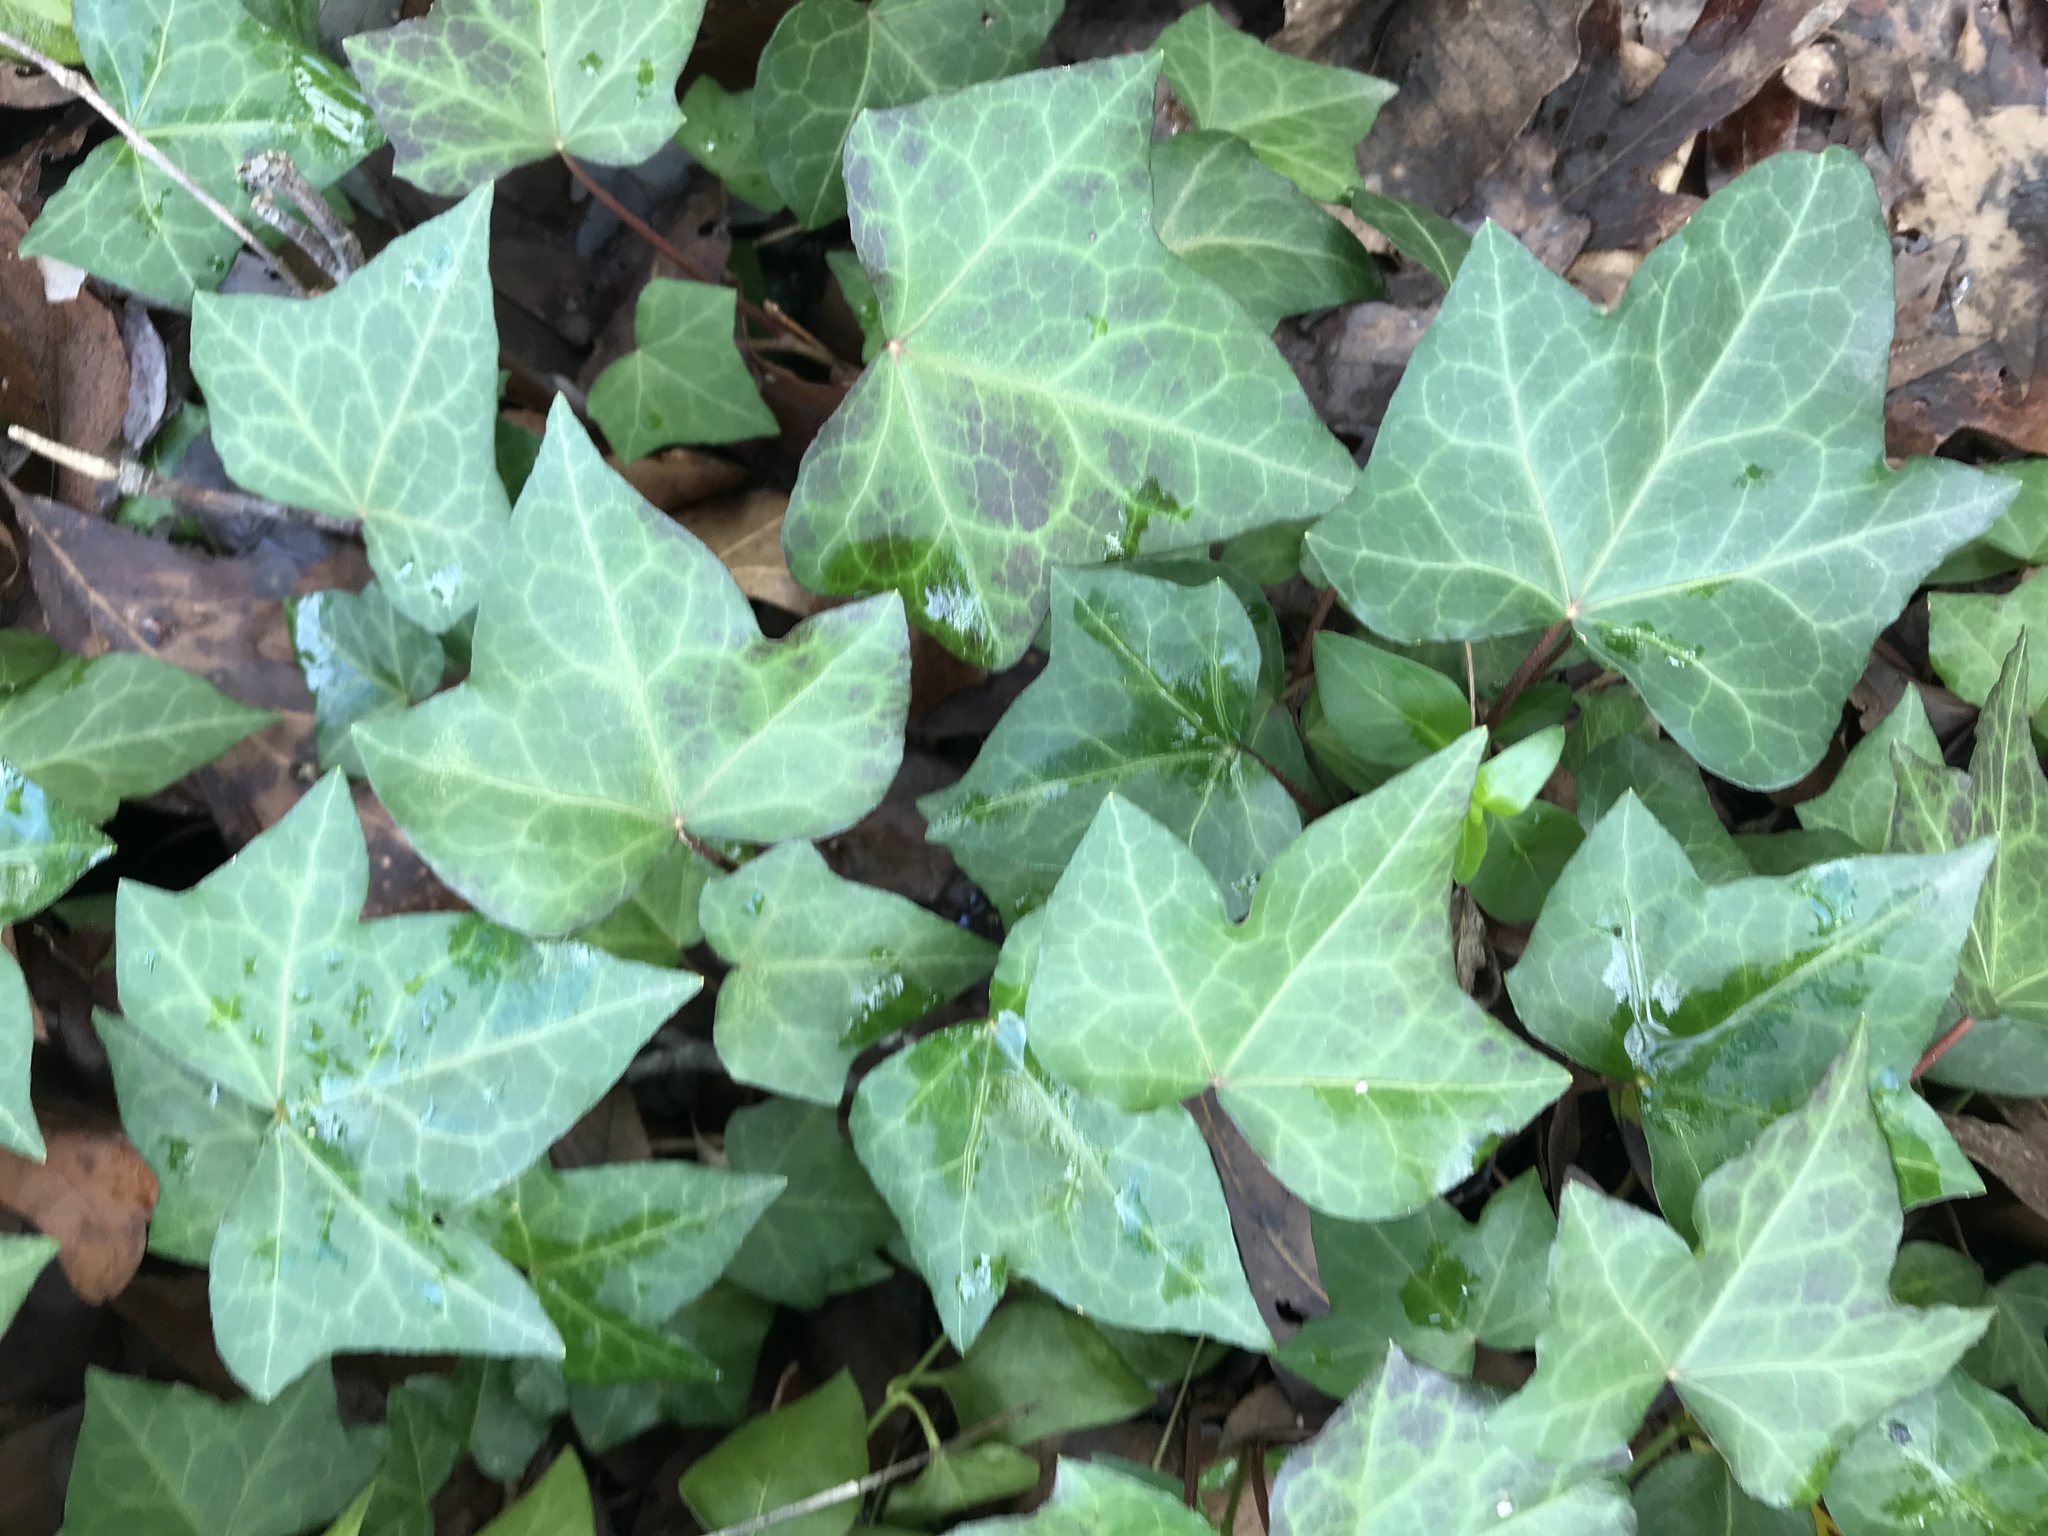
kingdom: Plantae
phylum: Tracheophyta
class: Magnoliopsida
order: Apiales
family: Araliaceae
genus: Hedera
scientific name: Hedera helix
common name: Ivy
